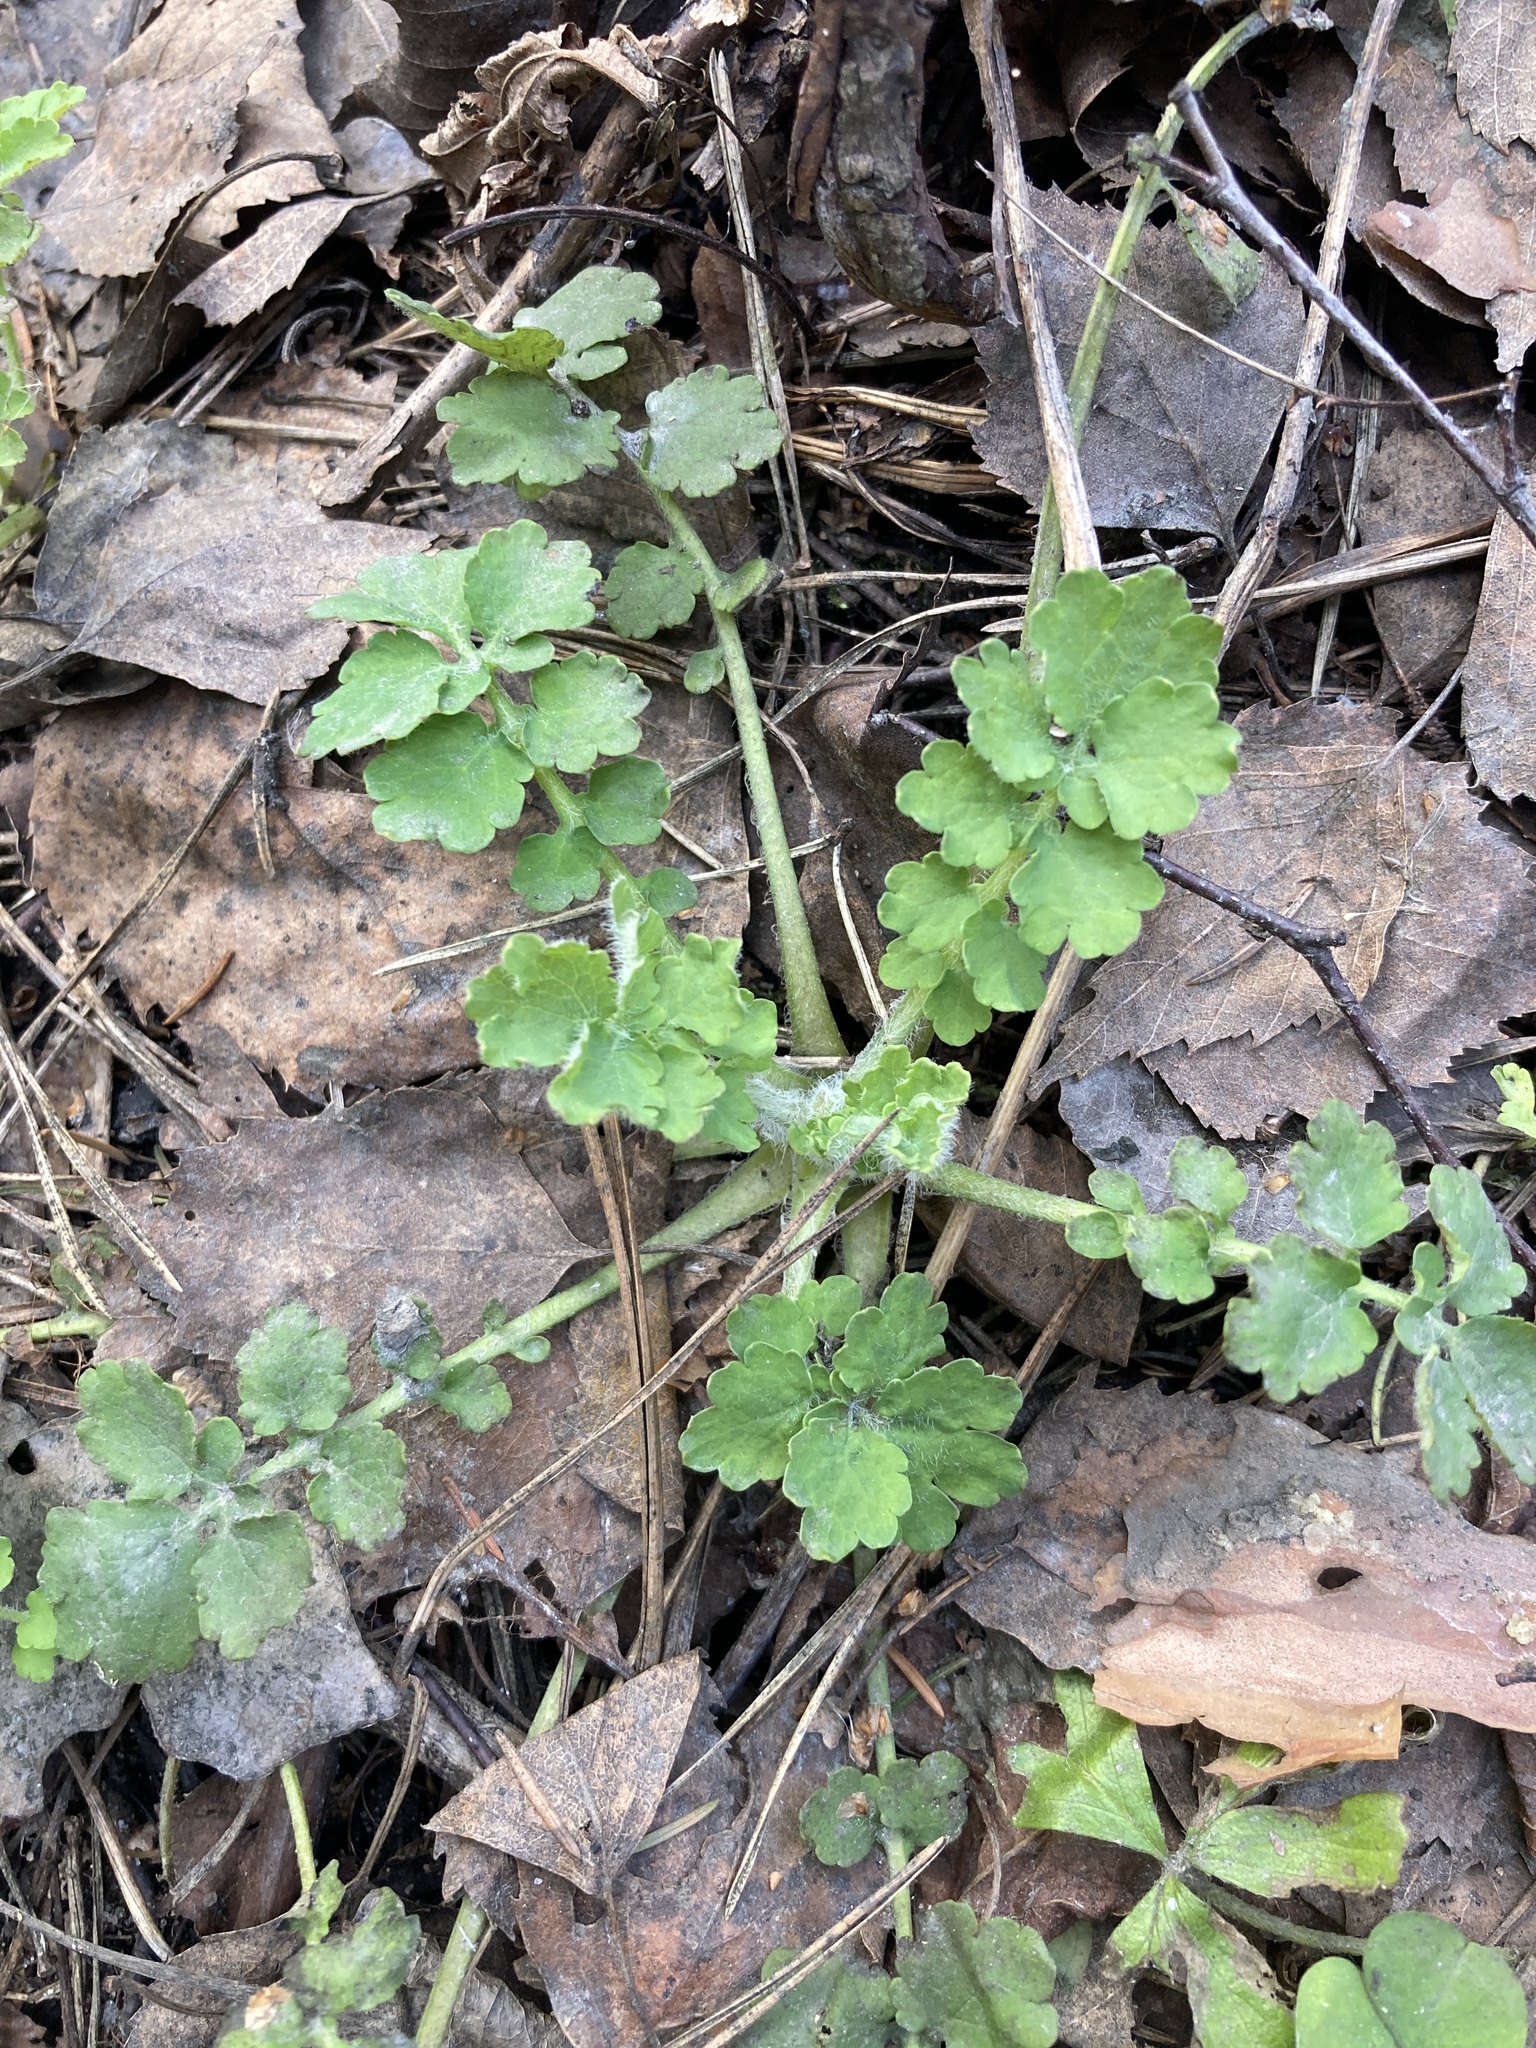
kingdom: Plantae
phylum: Tracheophyta
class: Magnoliopsida
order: Ranunculales
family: Papaveraceae
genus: Chelidonium
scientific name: Chelidonium majus
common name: Greater celandine
